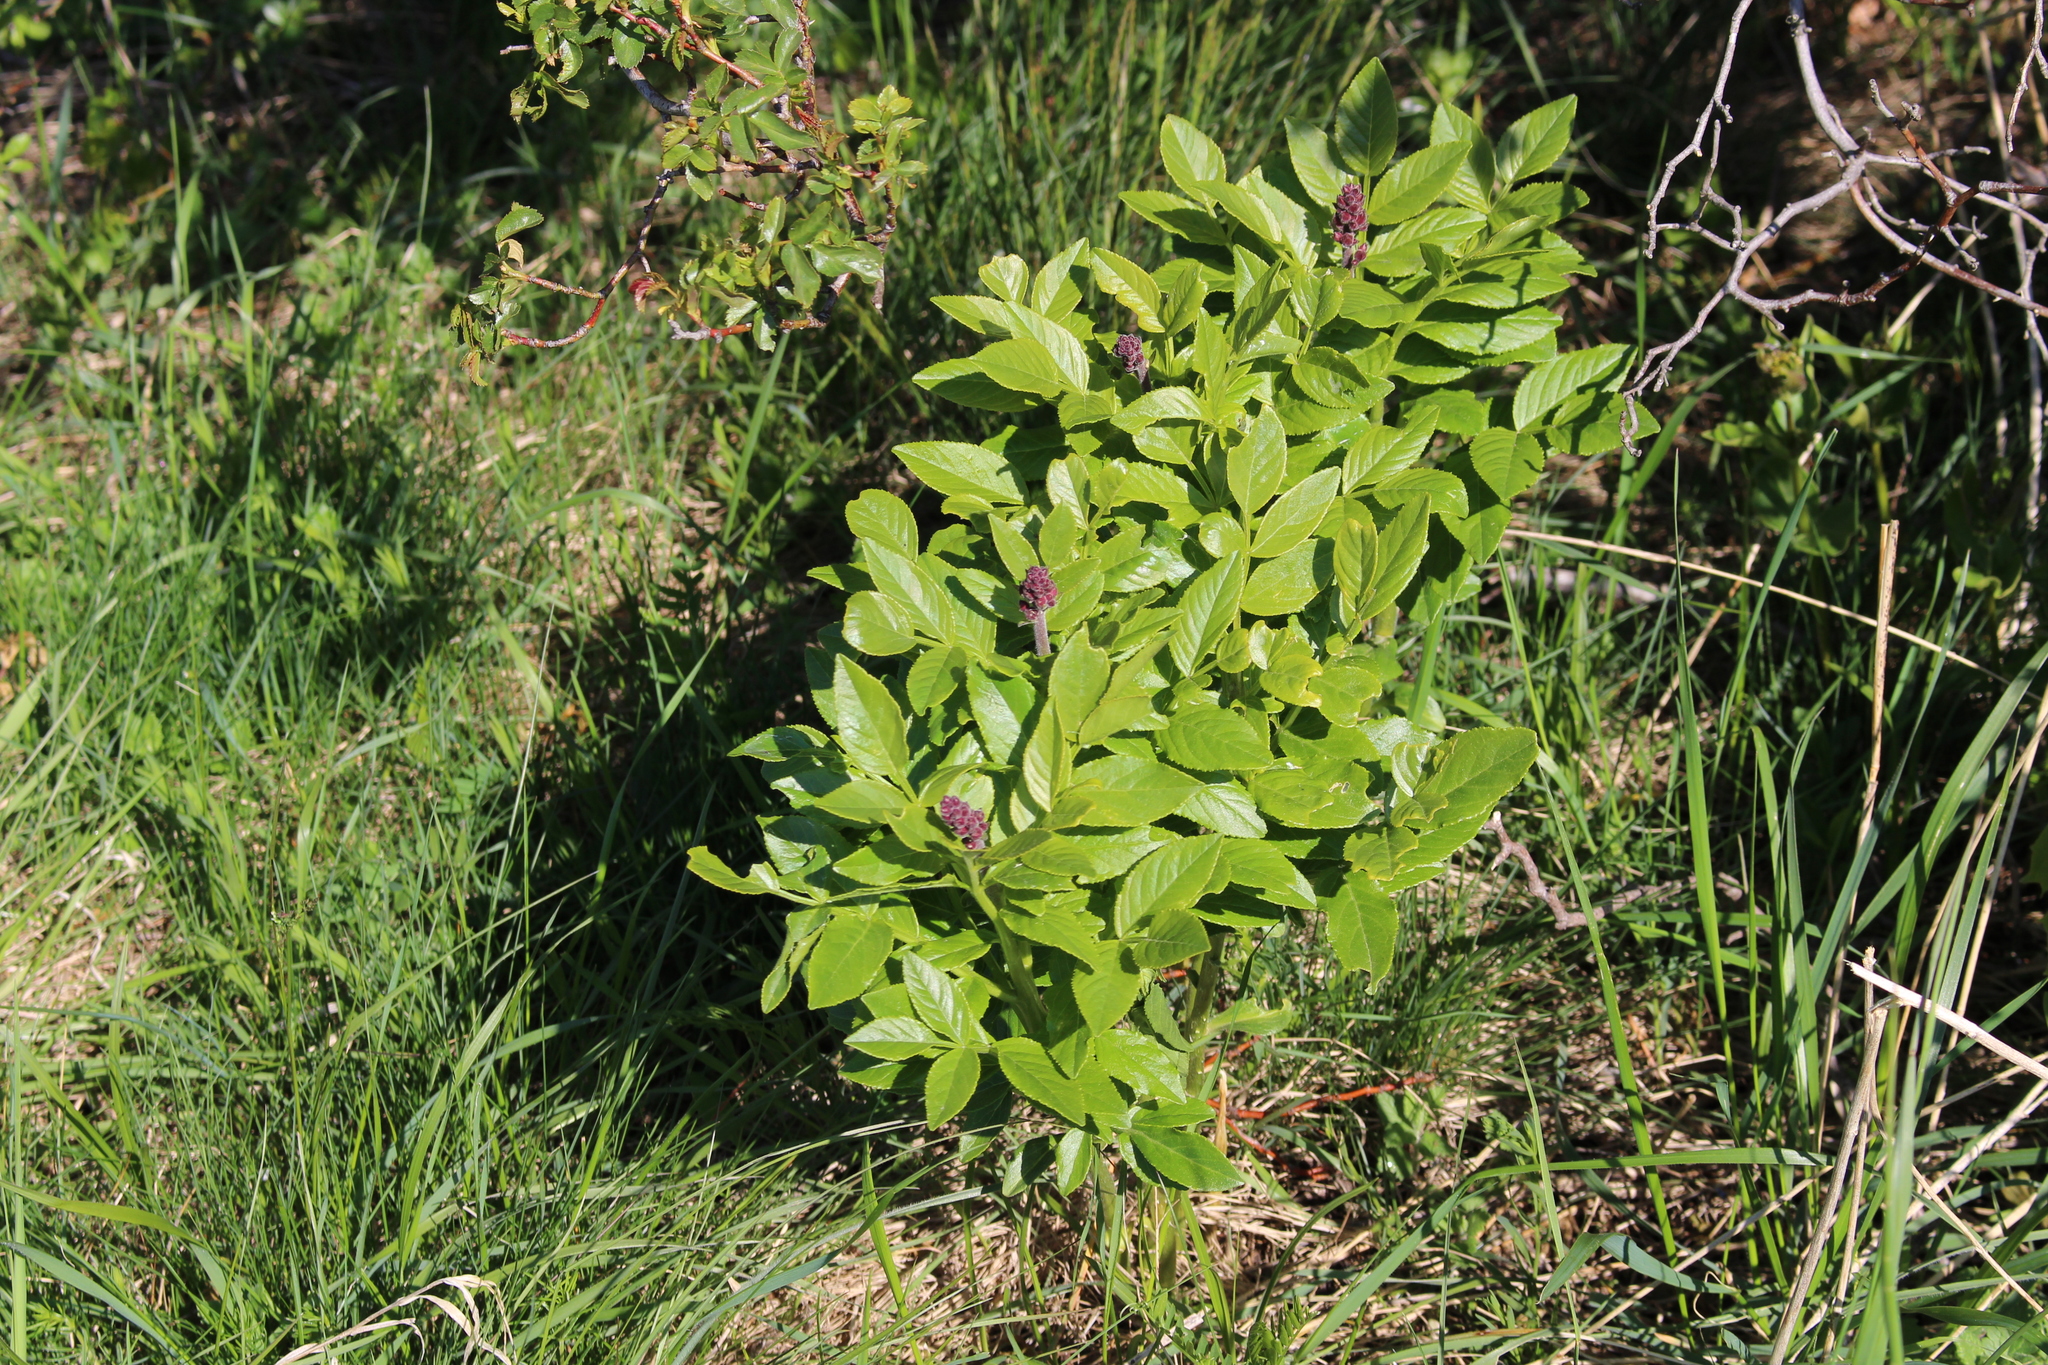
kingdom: Plantae
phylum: Tracheophyta
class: Magnoliopsida
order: Sapindales
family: Rutaceae
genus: Dictamnus
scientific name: Dictamnus albus
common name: Gasplant
